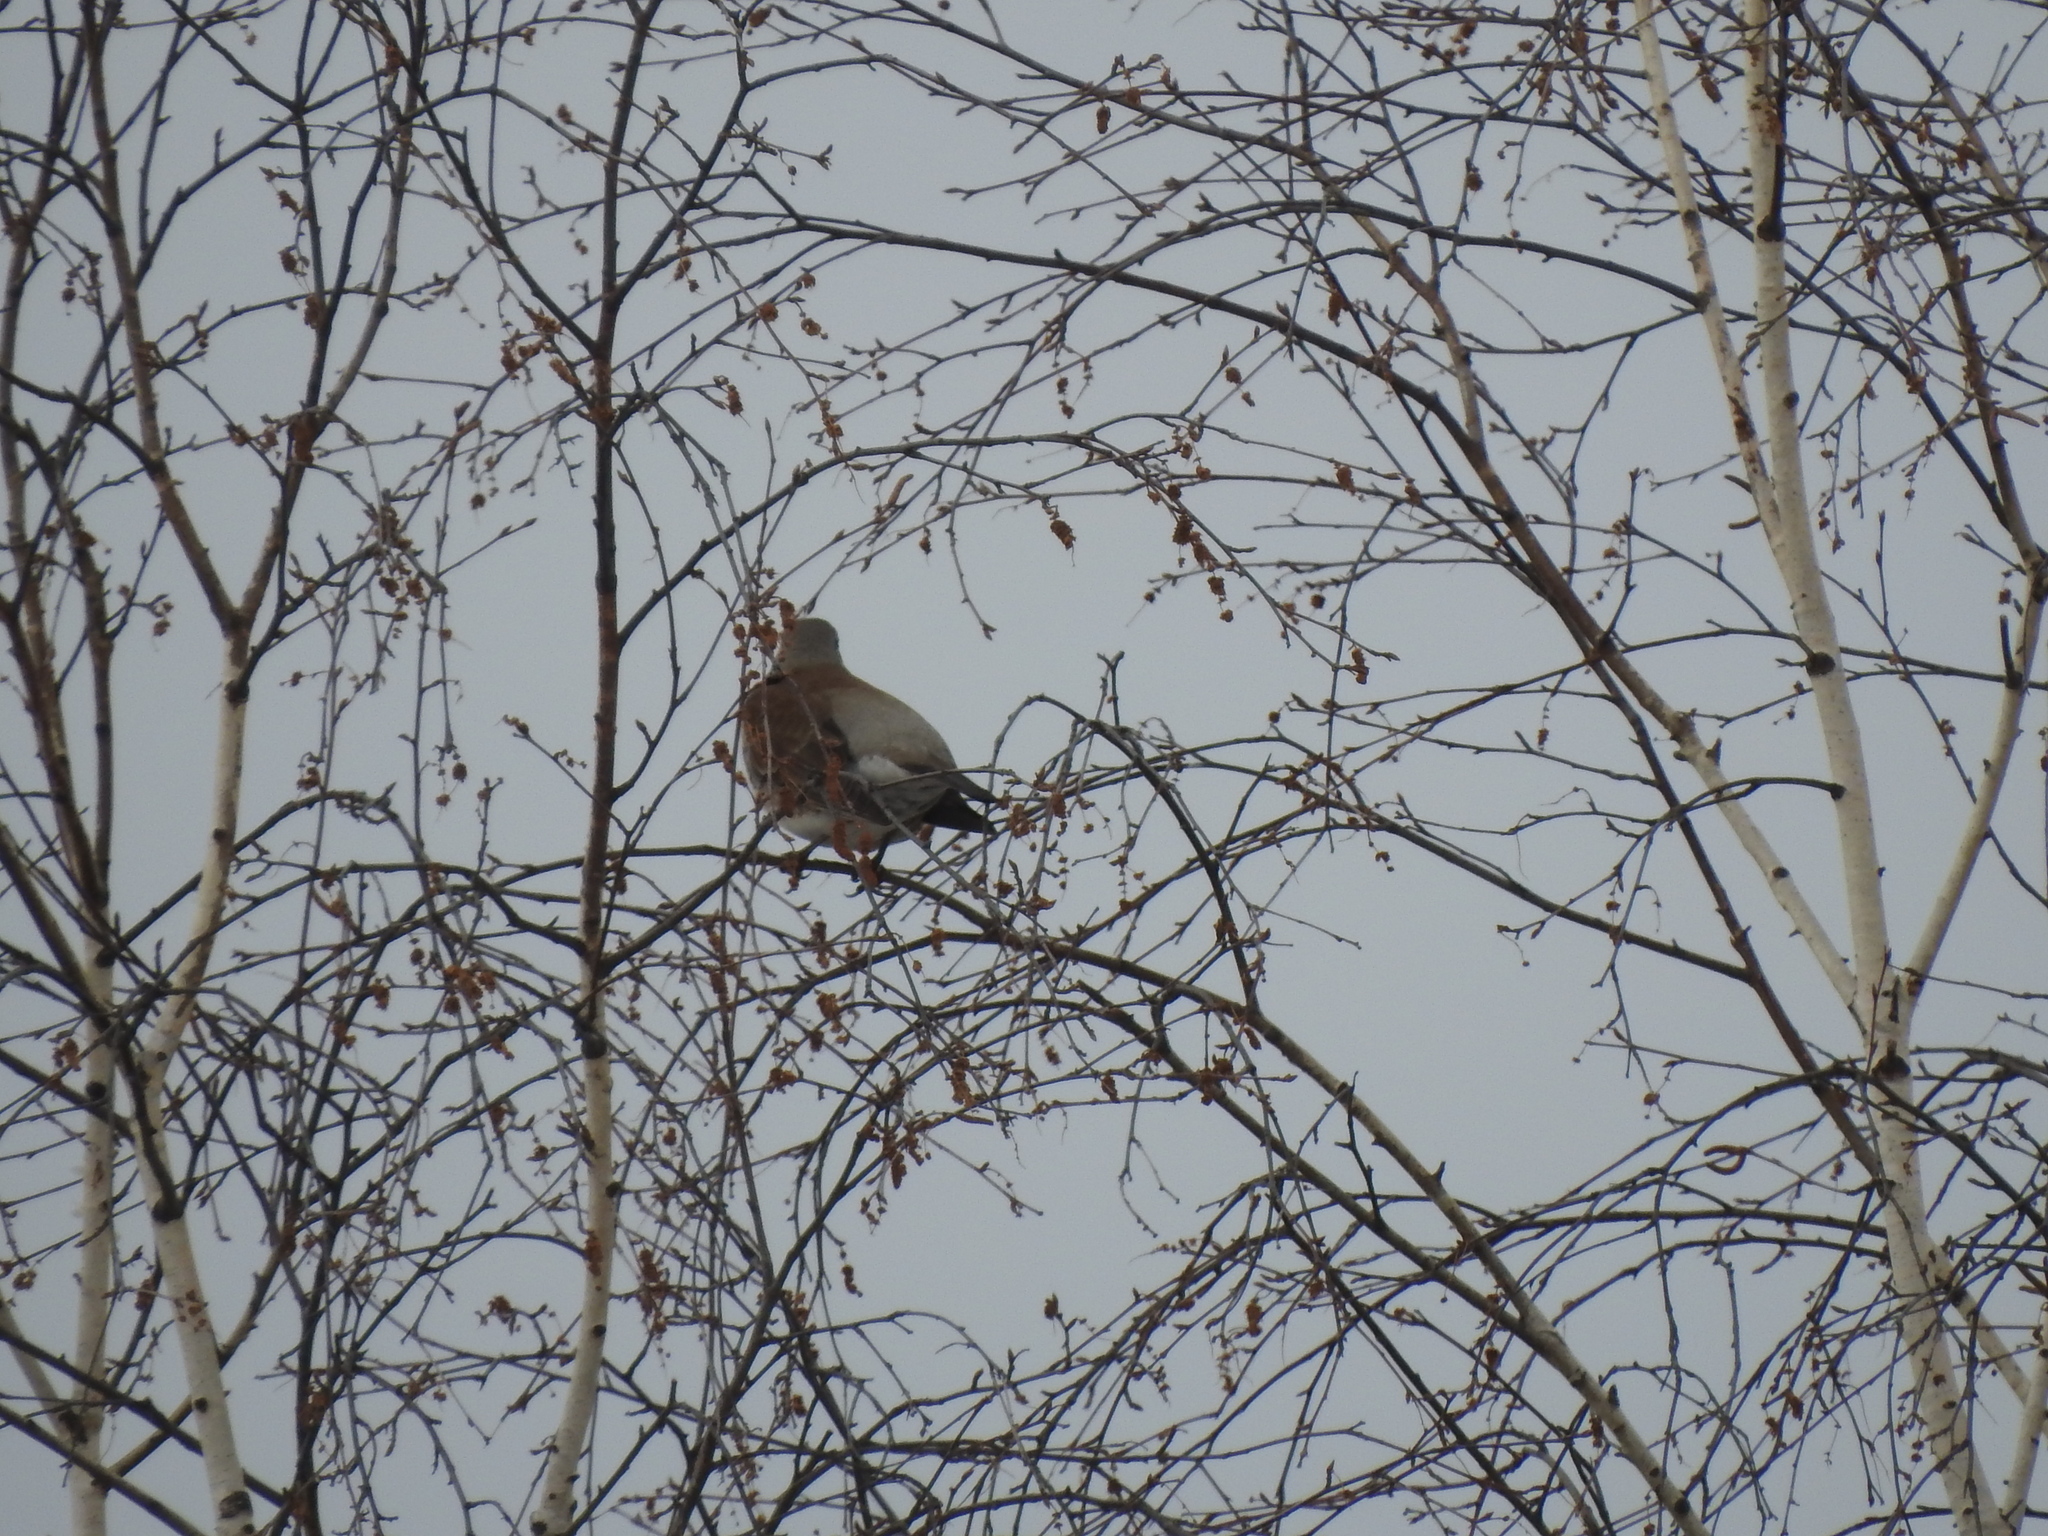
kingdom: Animalia
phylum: Chordata
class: Aves
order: Passeriformes
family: Turdidae
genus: Turdus
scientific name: Turdus pilaris
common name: Fieldfare
